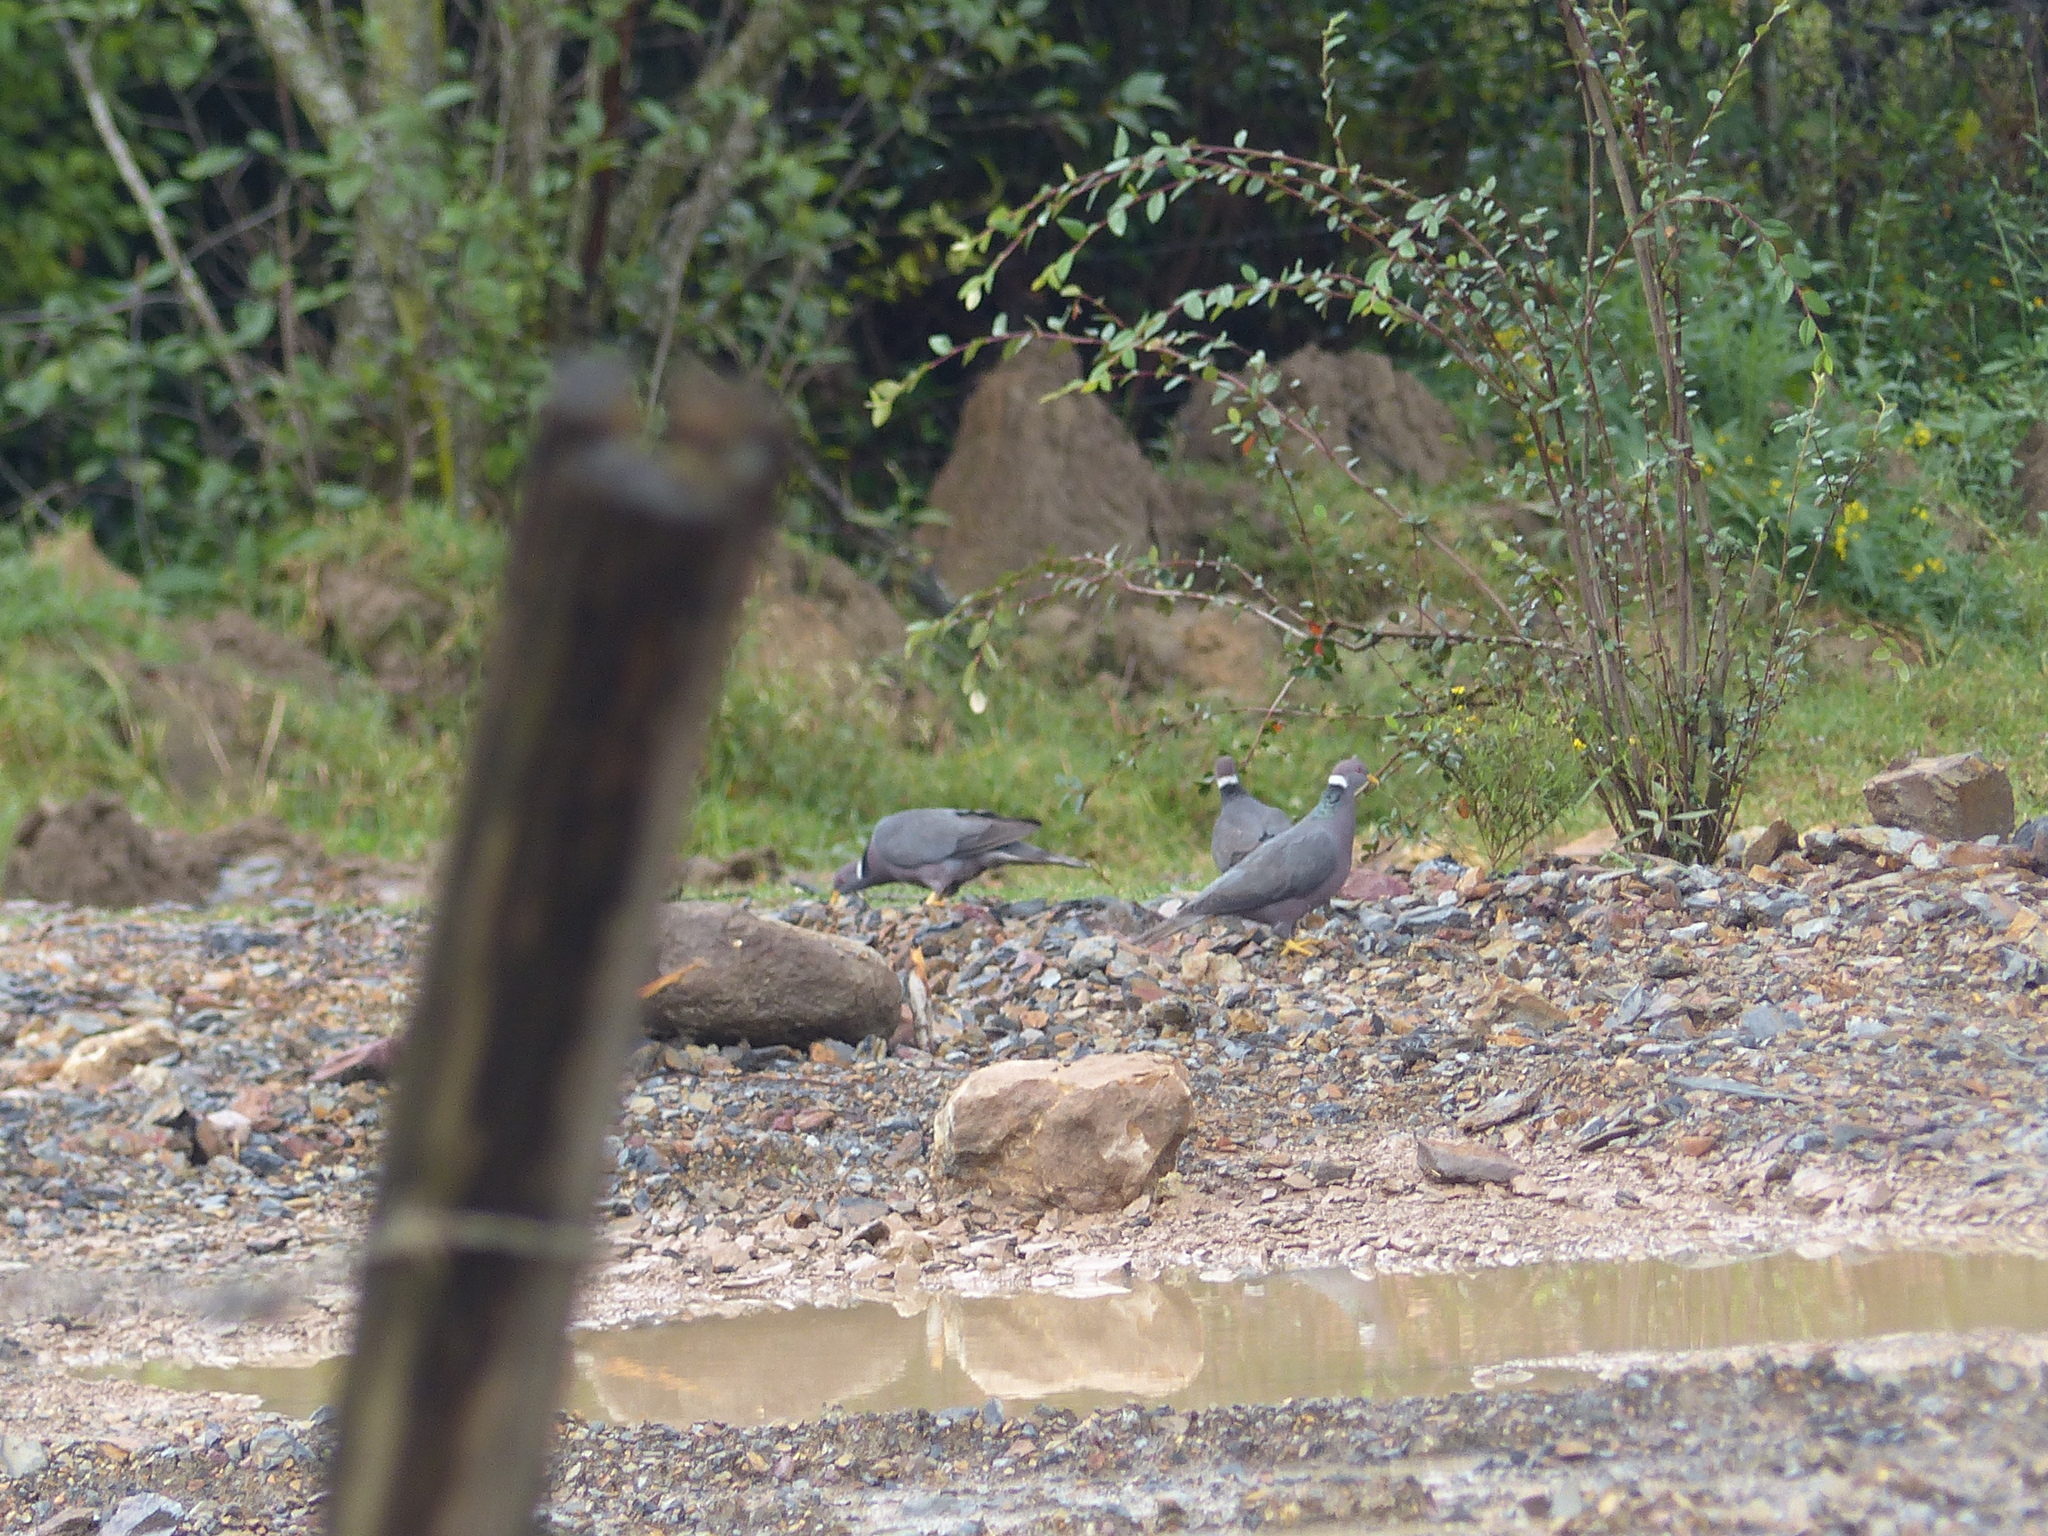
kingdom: Animalia
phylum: Chordata
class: Aves
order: Columbiformes
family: Columbidae
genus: Patagioenas
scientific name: Patagioenas fasciata
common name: Band-tailed pigeon
